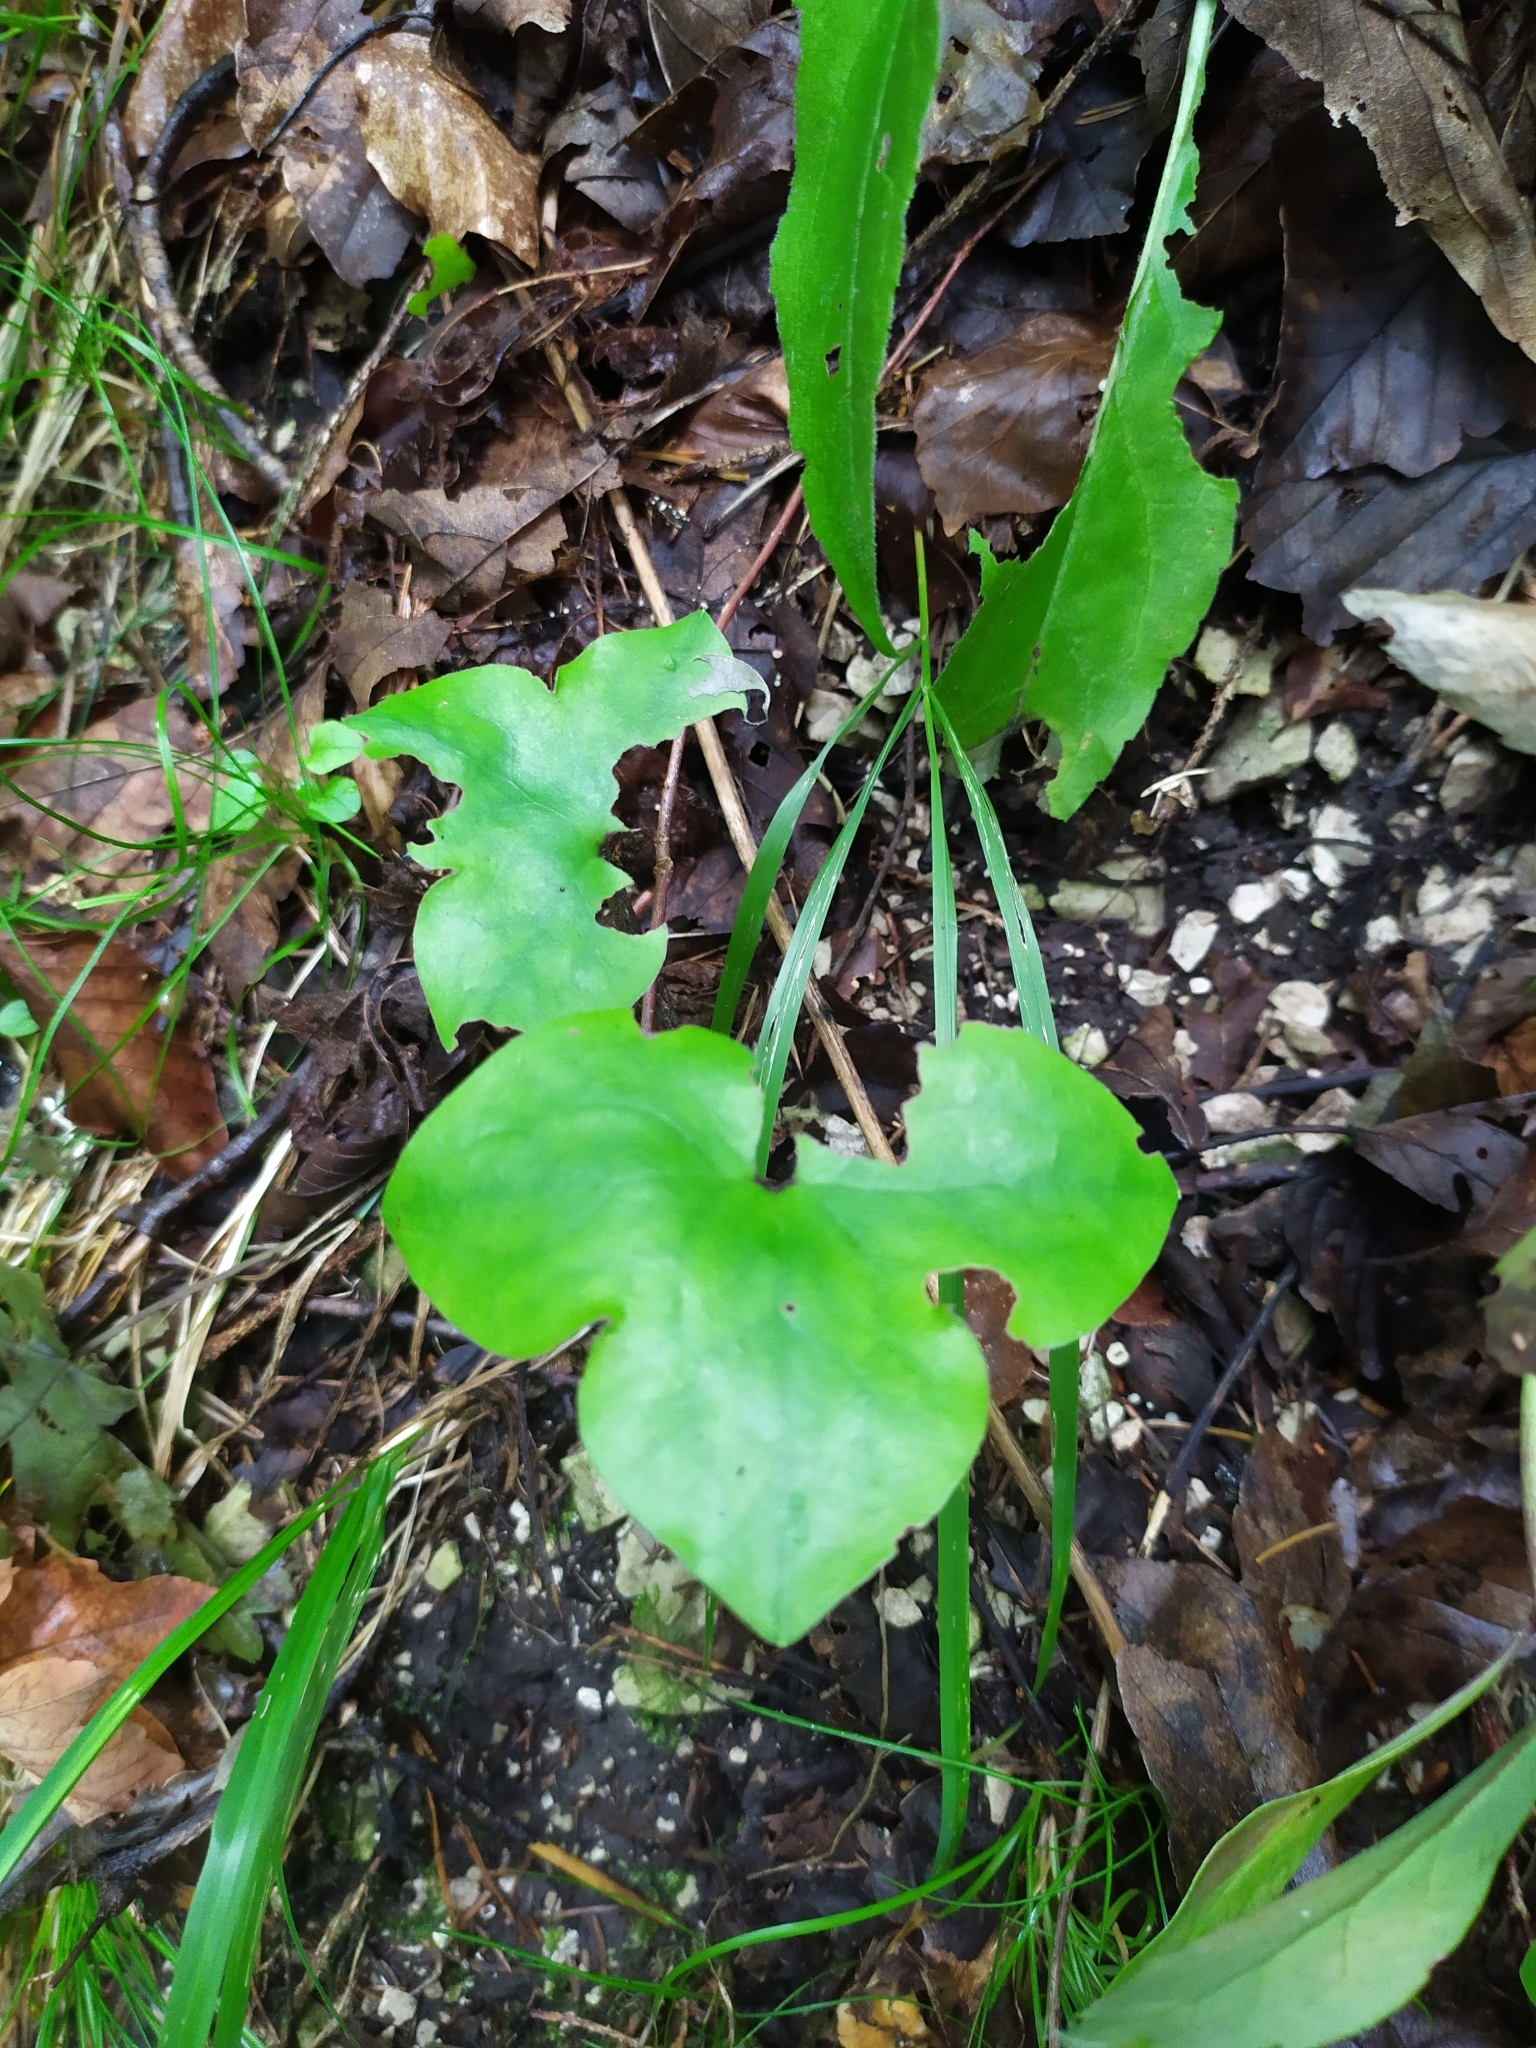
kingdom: Plantae
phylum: Tracheophyta
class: Magnoliopsida
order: Ranunculales
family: Ranunculaceae
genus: Hepatica
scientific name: Hepatica nobilis
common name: Liverleaf
